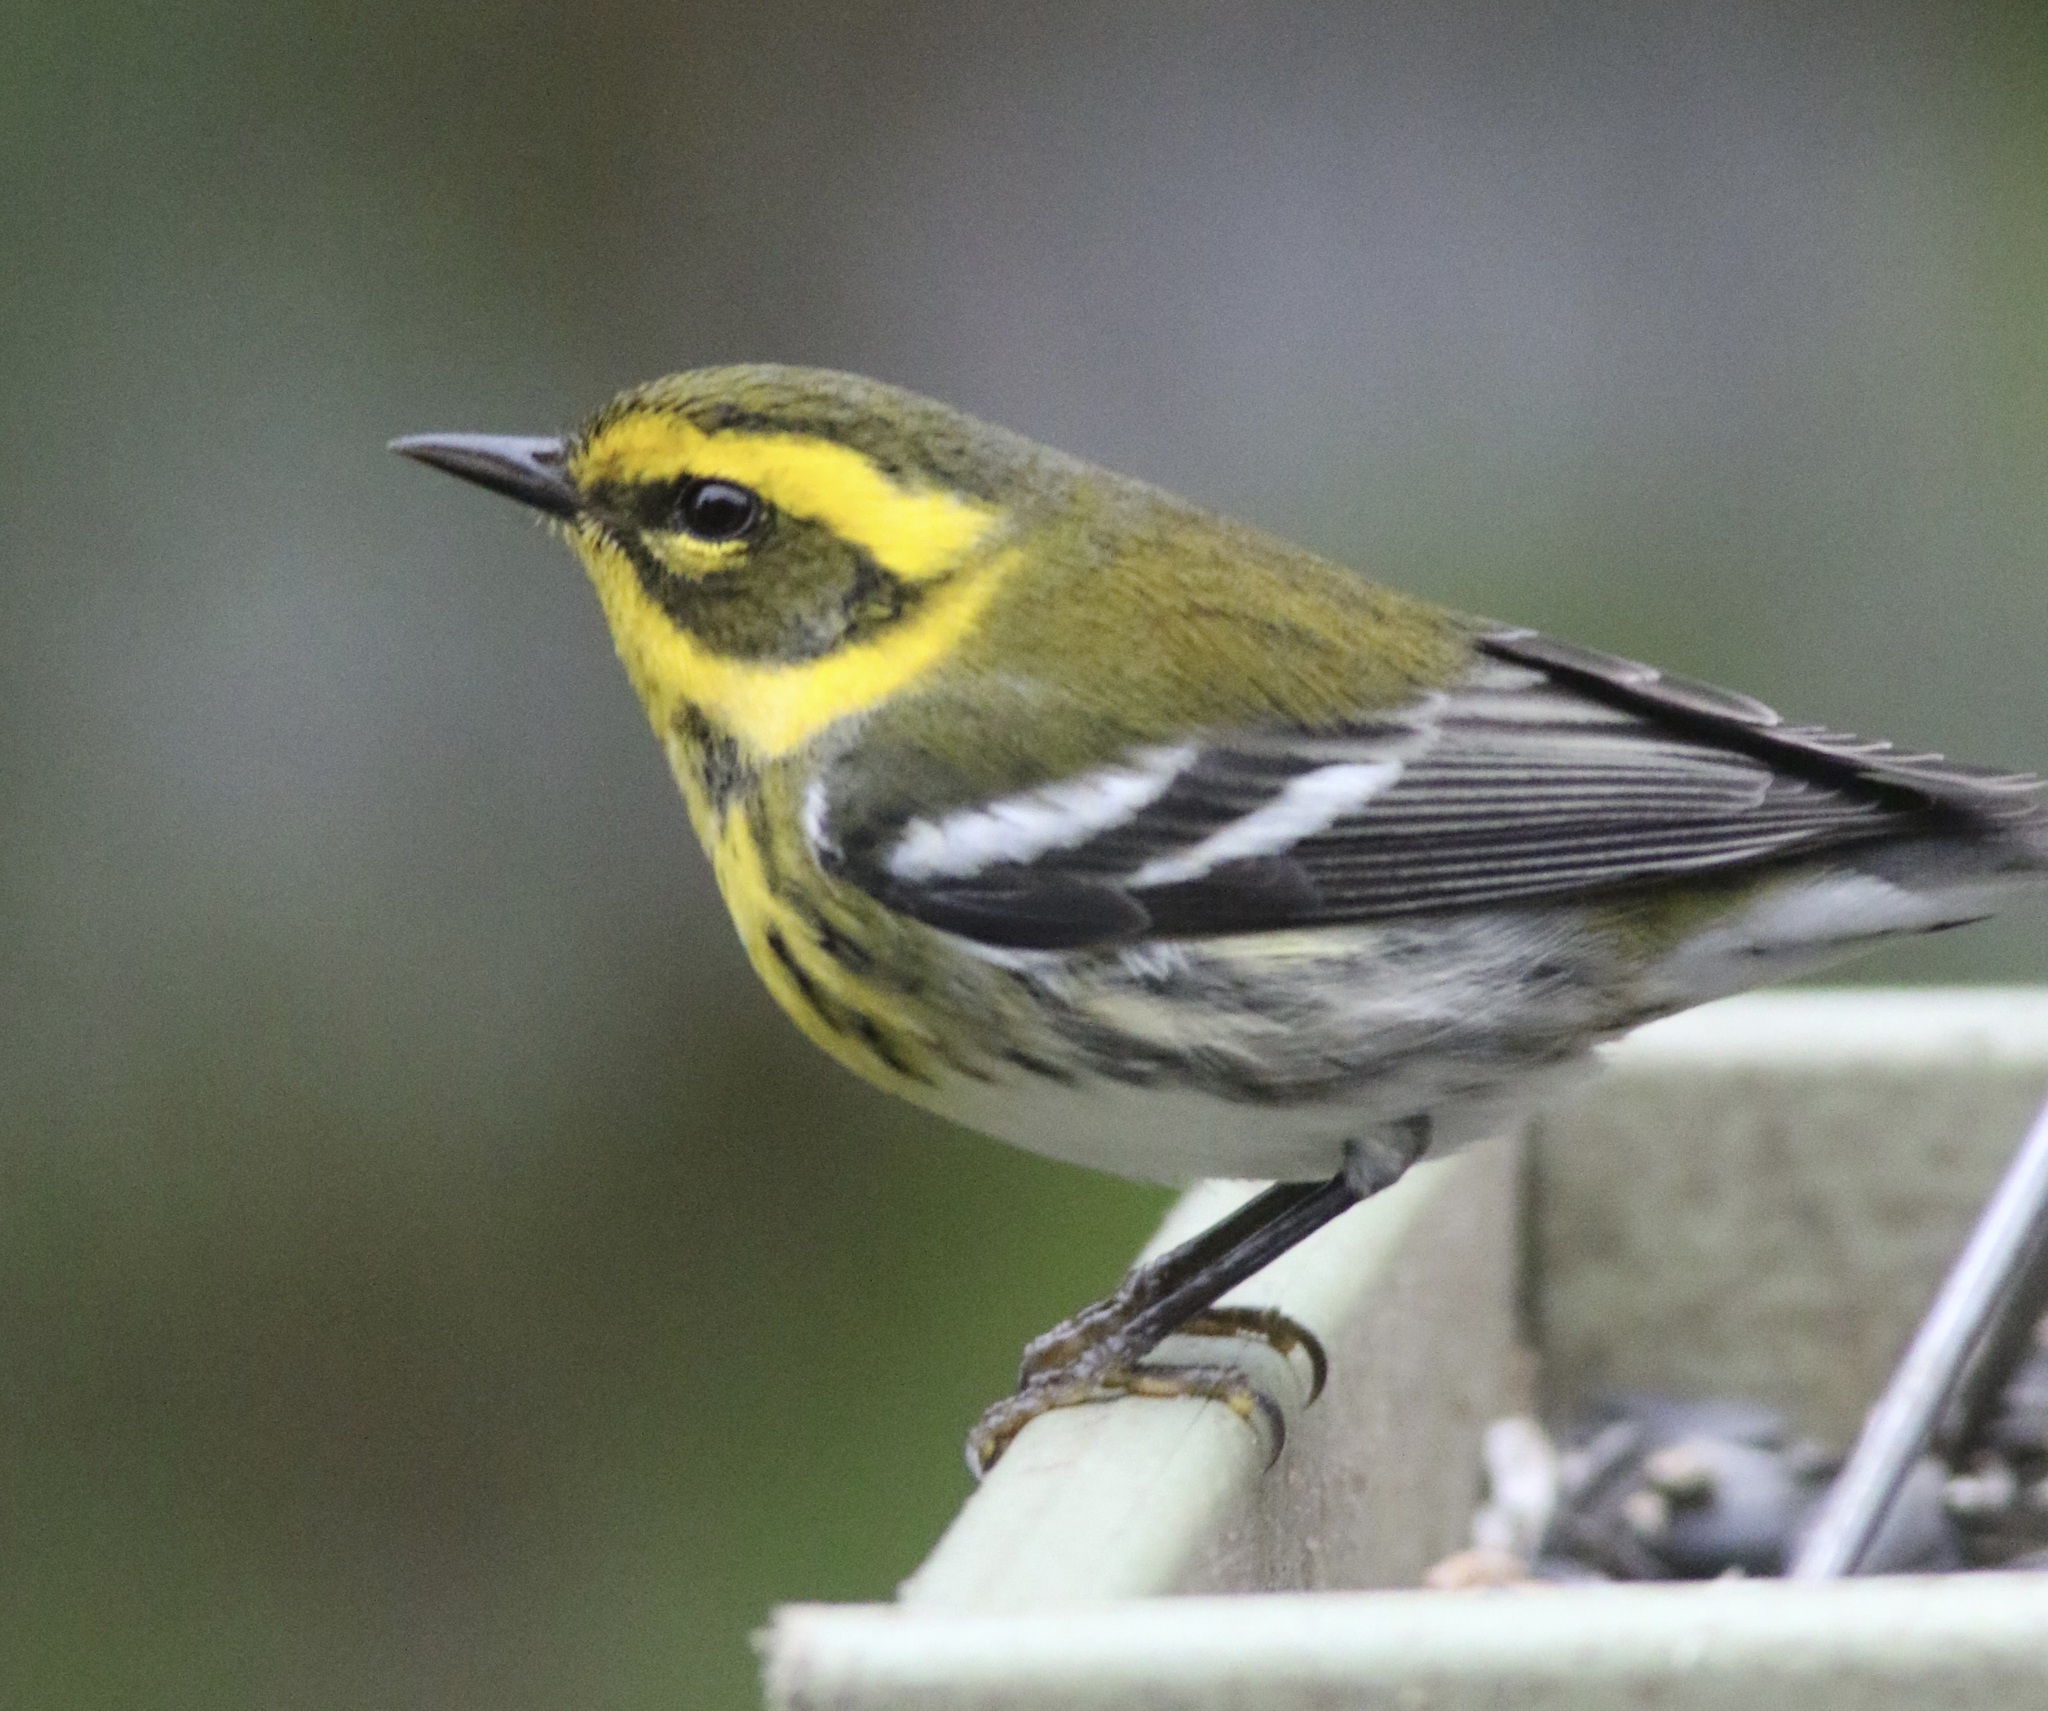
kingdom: Animalia
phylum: Chordata
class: Aves
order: Passeriformes
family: Parulidae
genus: Setophaga
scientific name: Setophaga townsendi
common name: Townsend's warbler
